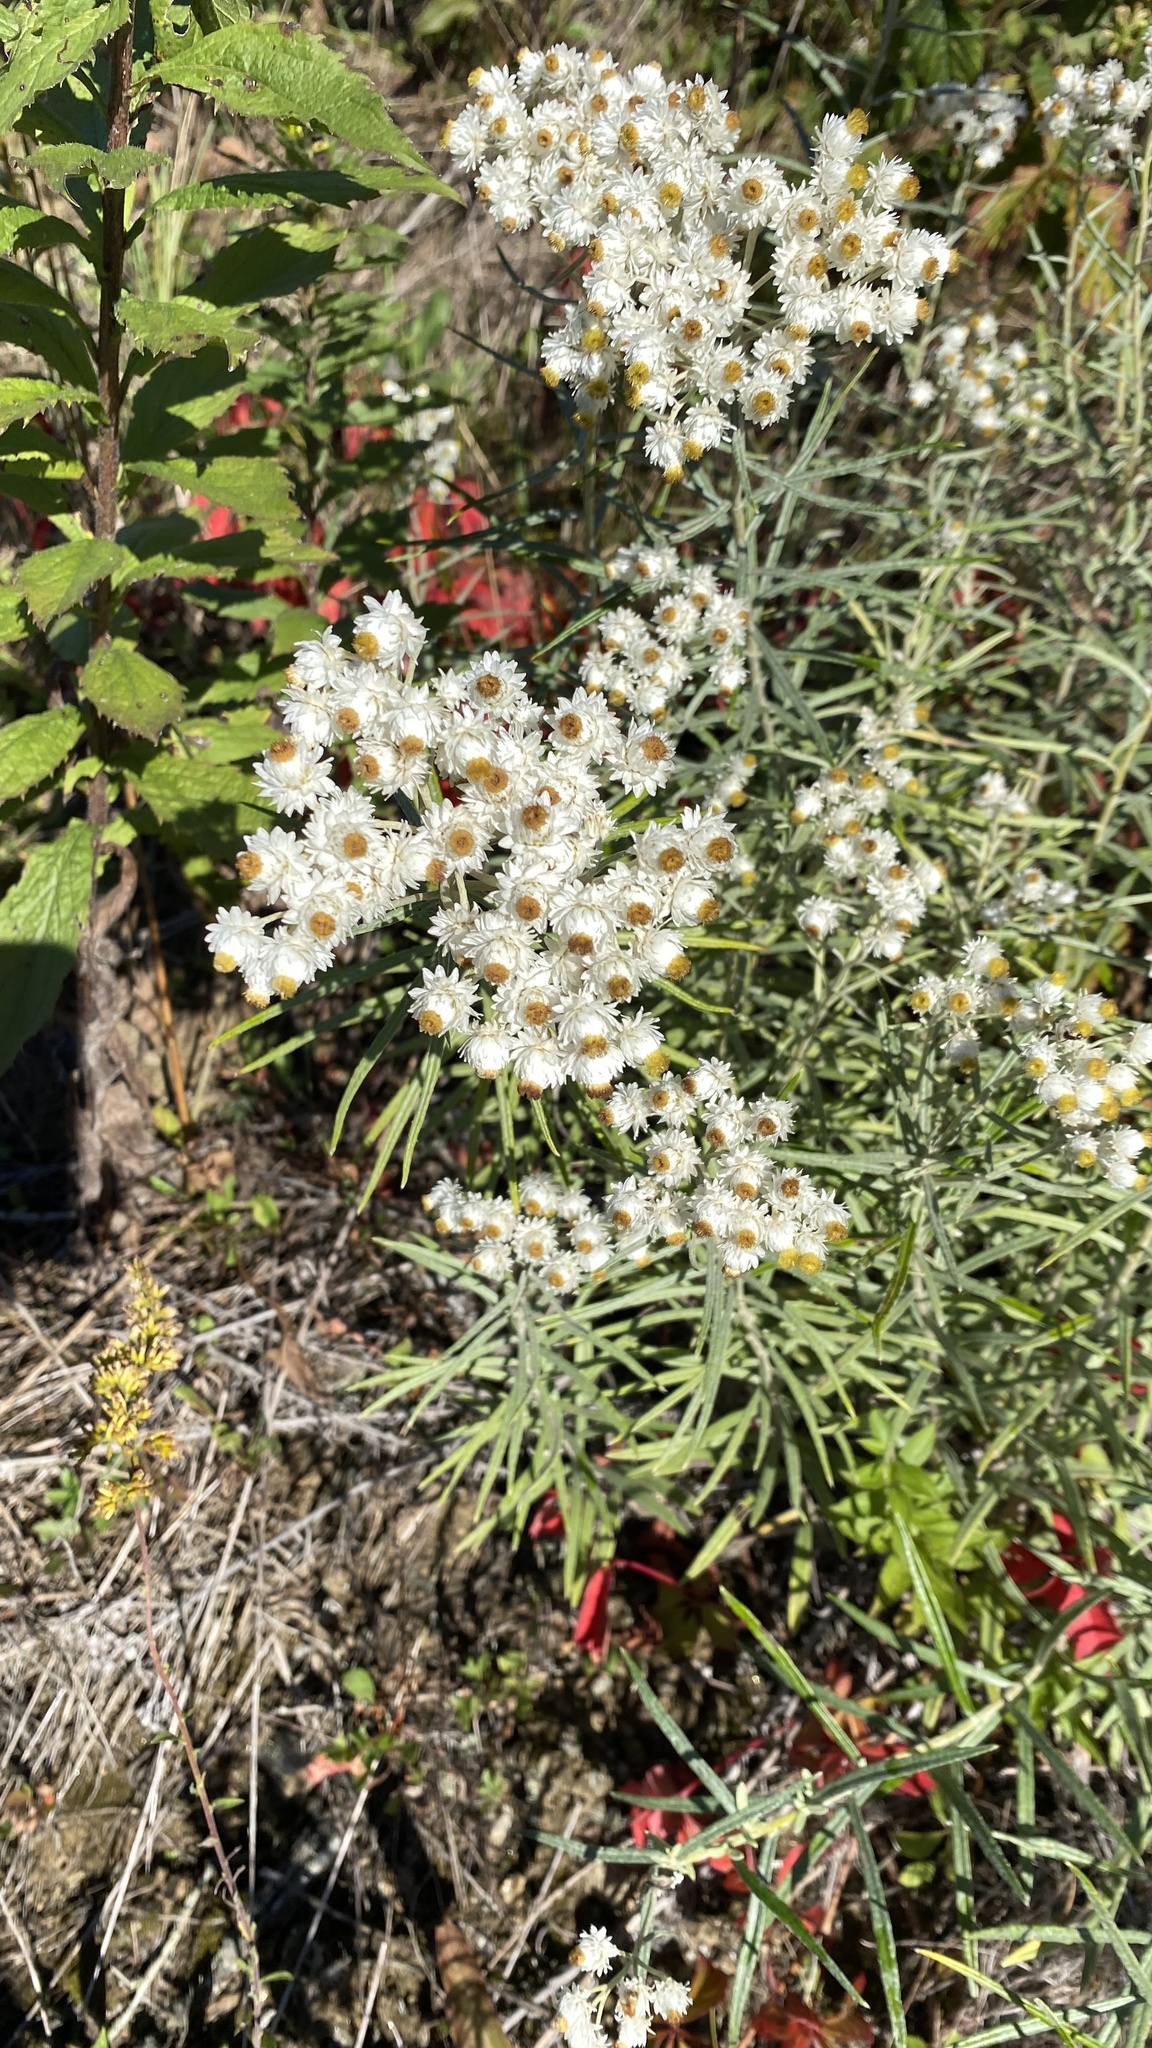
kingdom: Plantae
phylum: Tracheophyta
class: Magnoliopsida
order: Asterales
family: Asteraceae
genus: Anaphalis
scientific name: Anaphalis margaritacea
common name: Pearly everlasting
